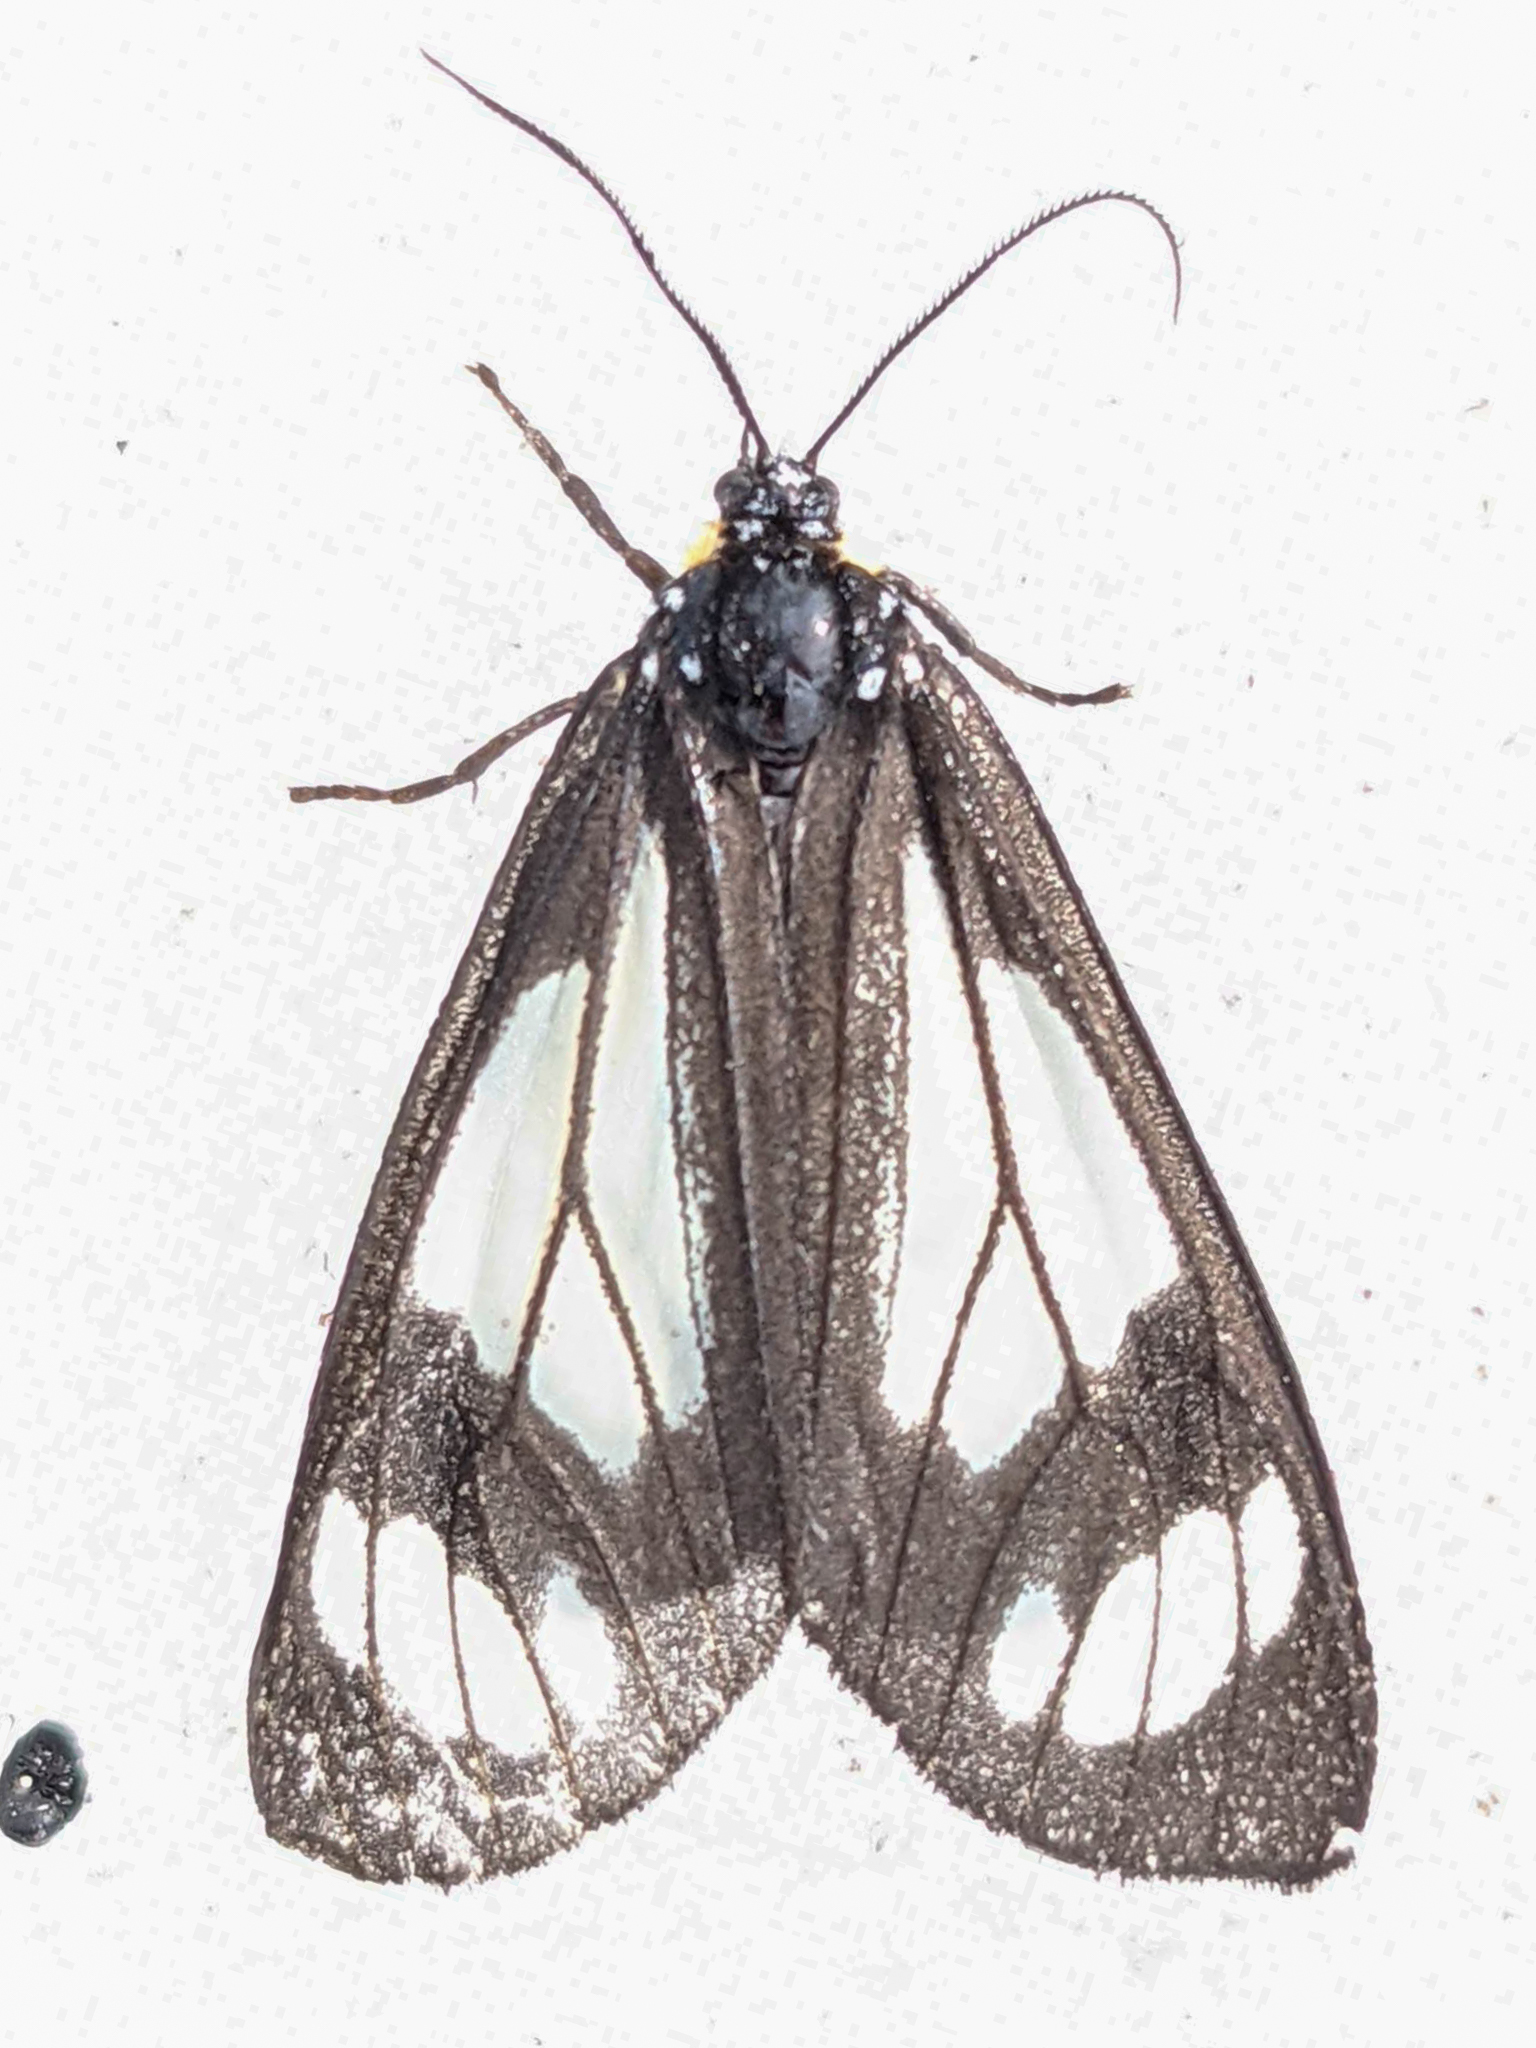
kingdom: Animalia
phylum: Arthropoda
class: Insecta
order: Lepidoptera
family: Erebidae
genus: Gnophaela
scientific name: Gnophaela vermiculata
